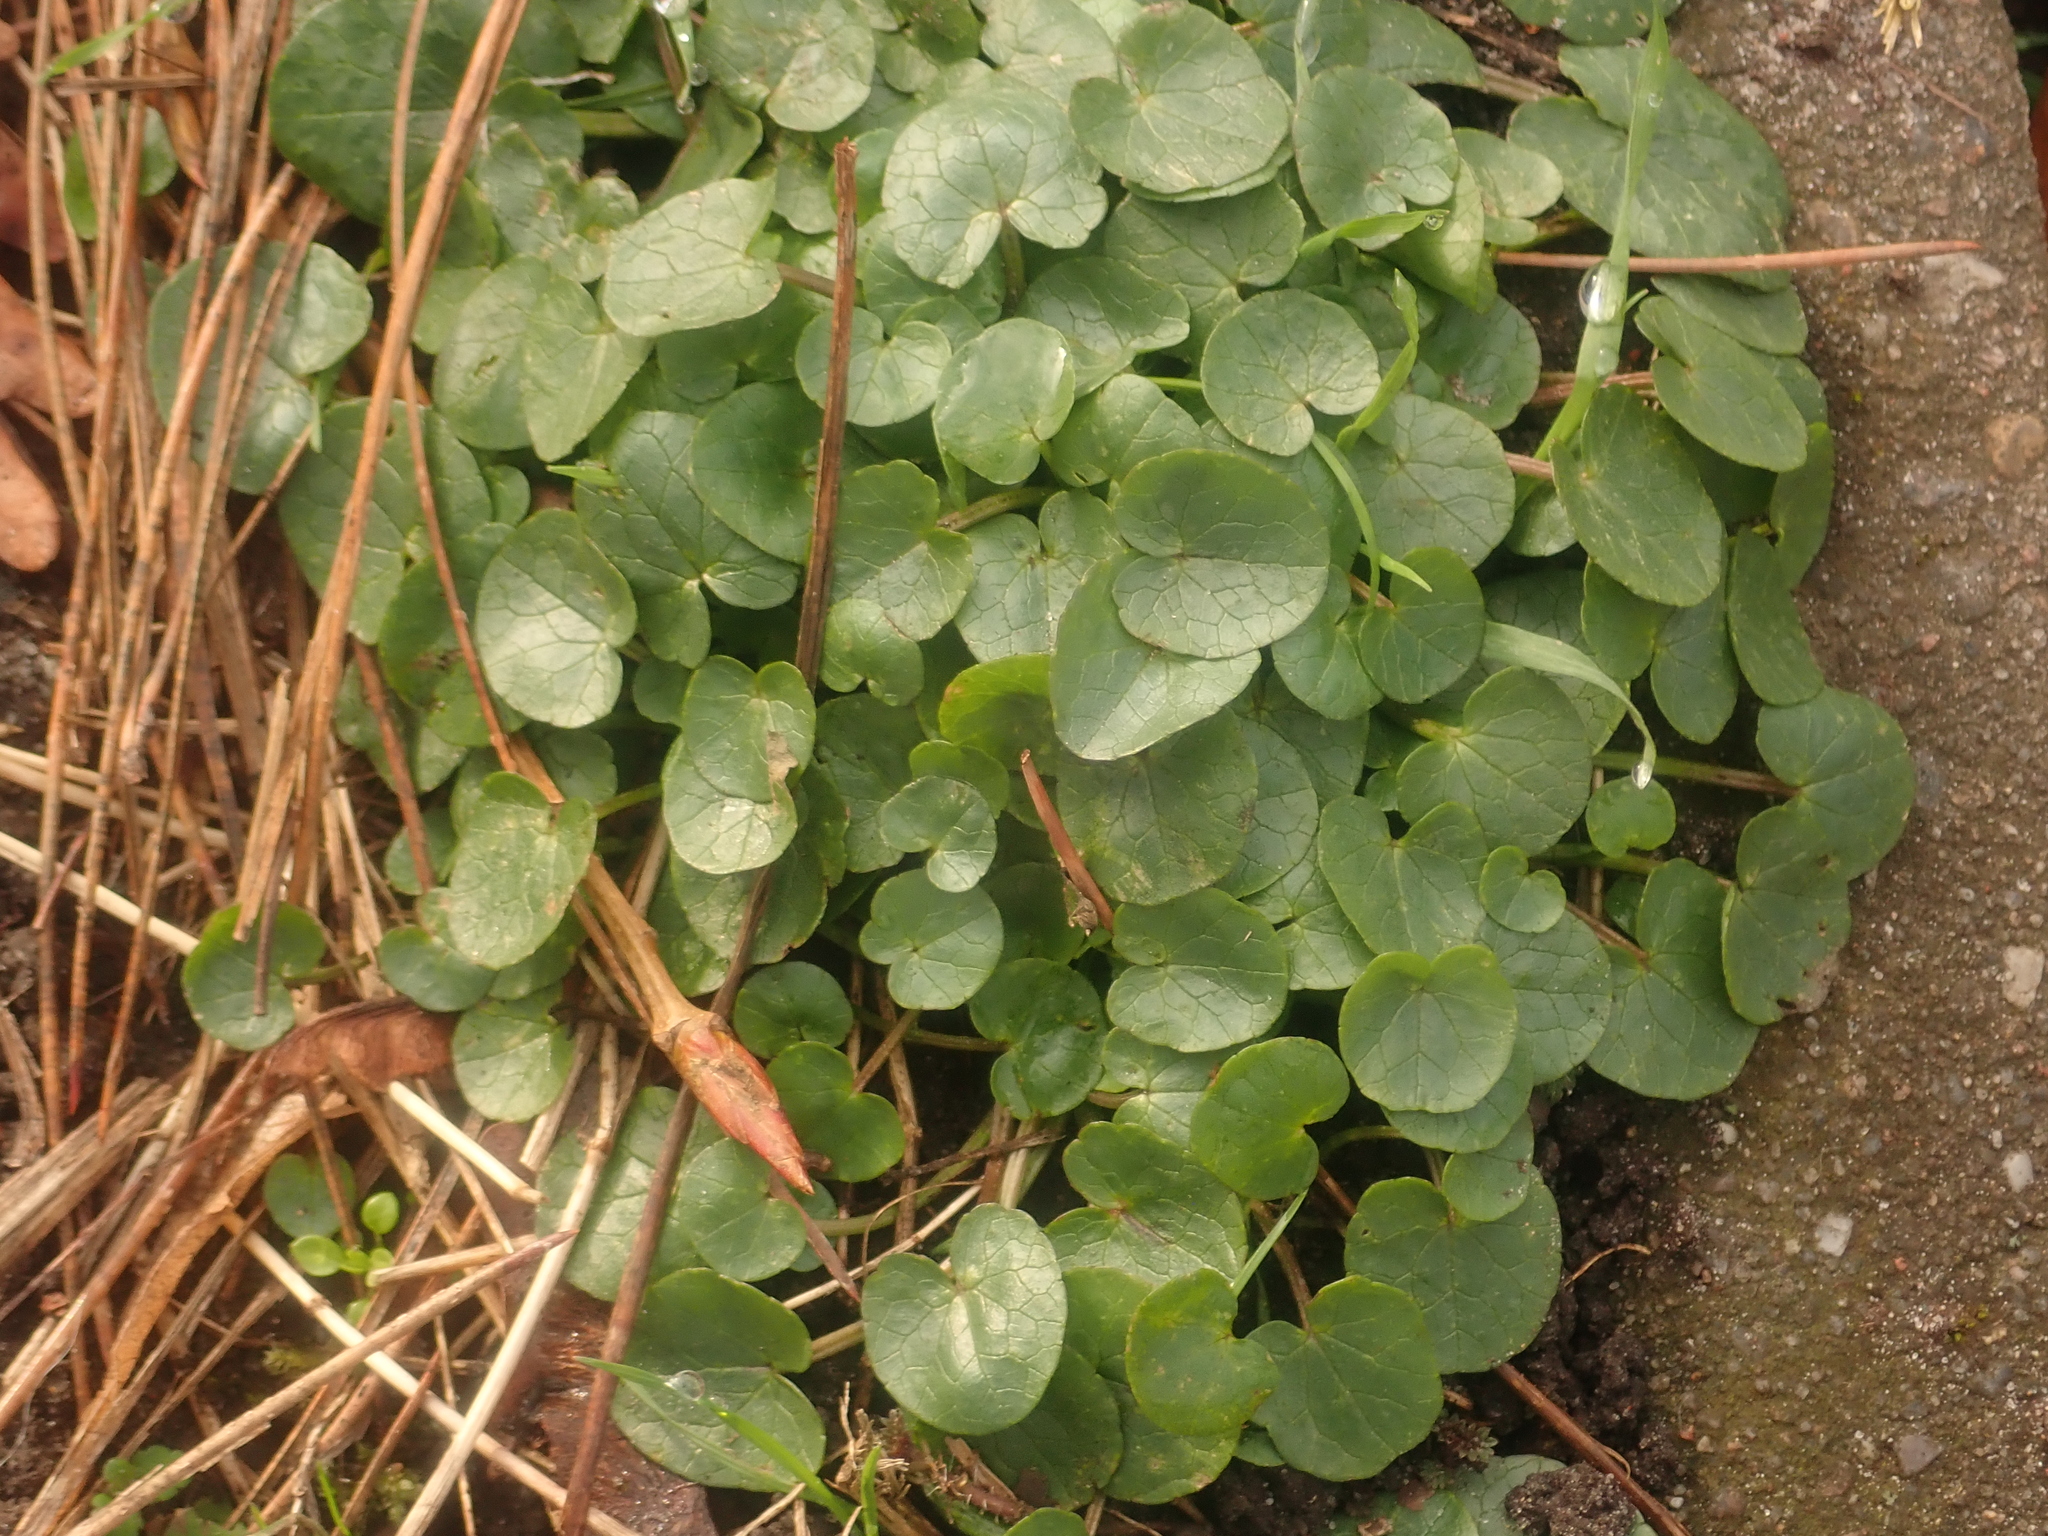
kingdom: Plantae
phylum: Tracheophyta
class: Magnoliopsida
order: Ranunculales
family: Ranunculaceae
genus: Ficaria
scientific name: Ficaria verna
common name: Lesser celandine
